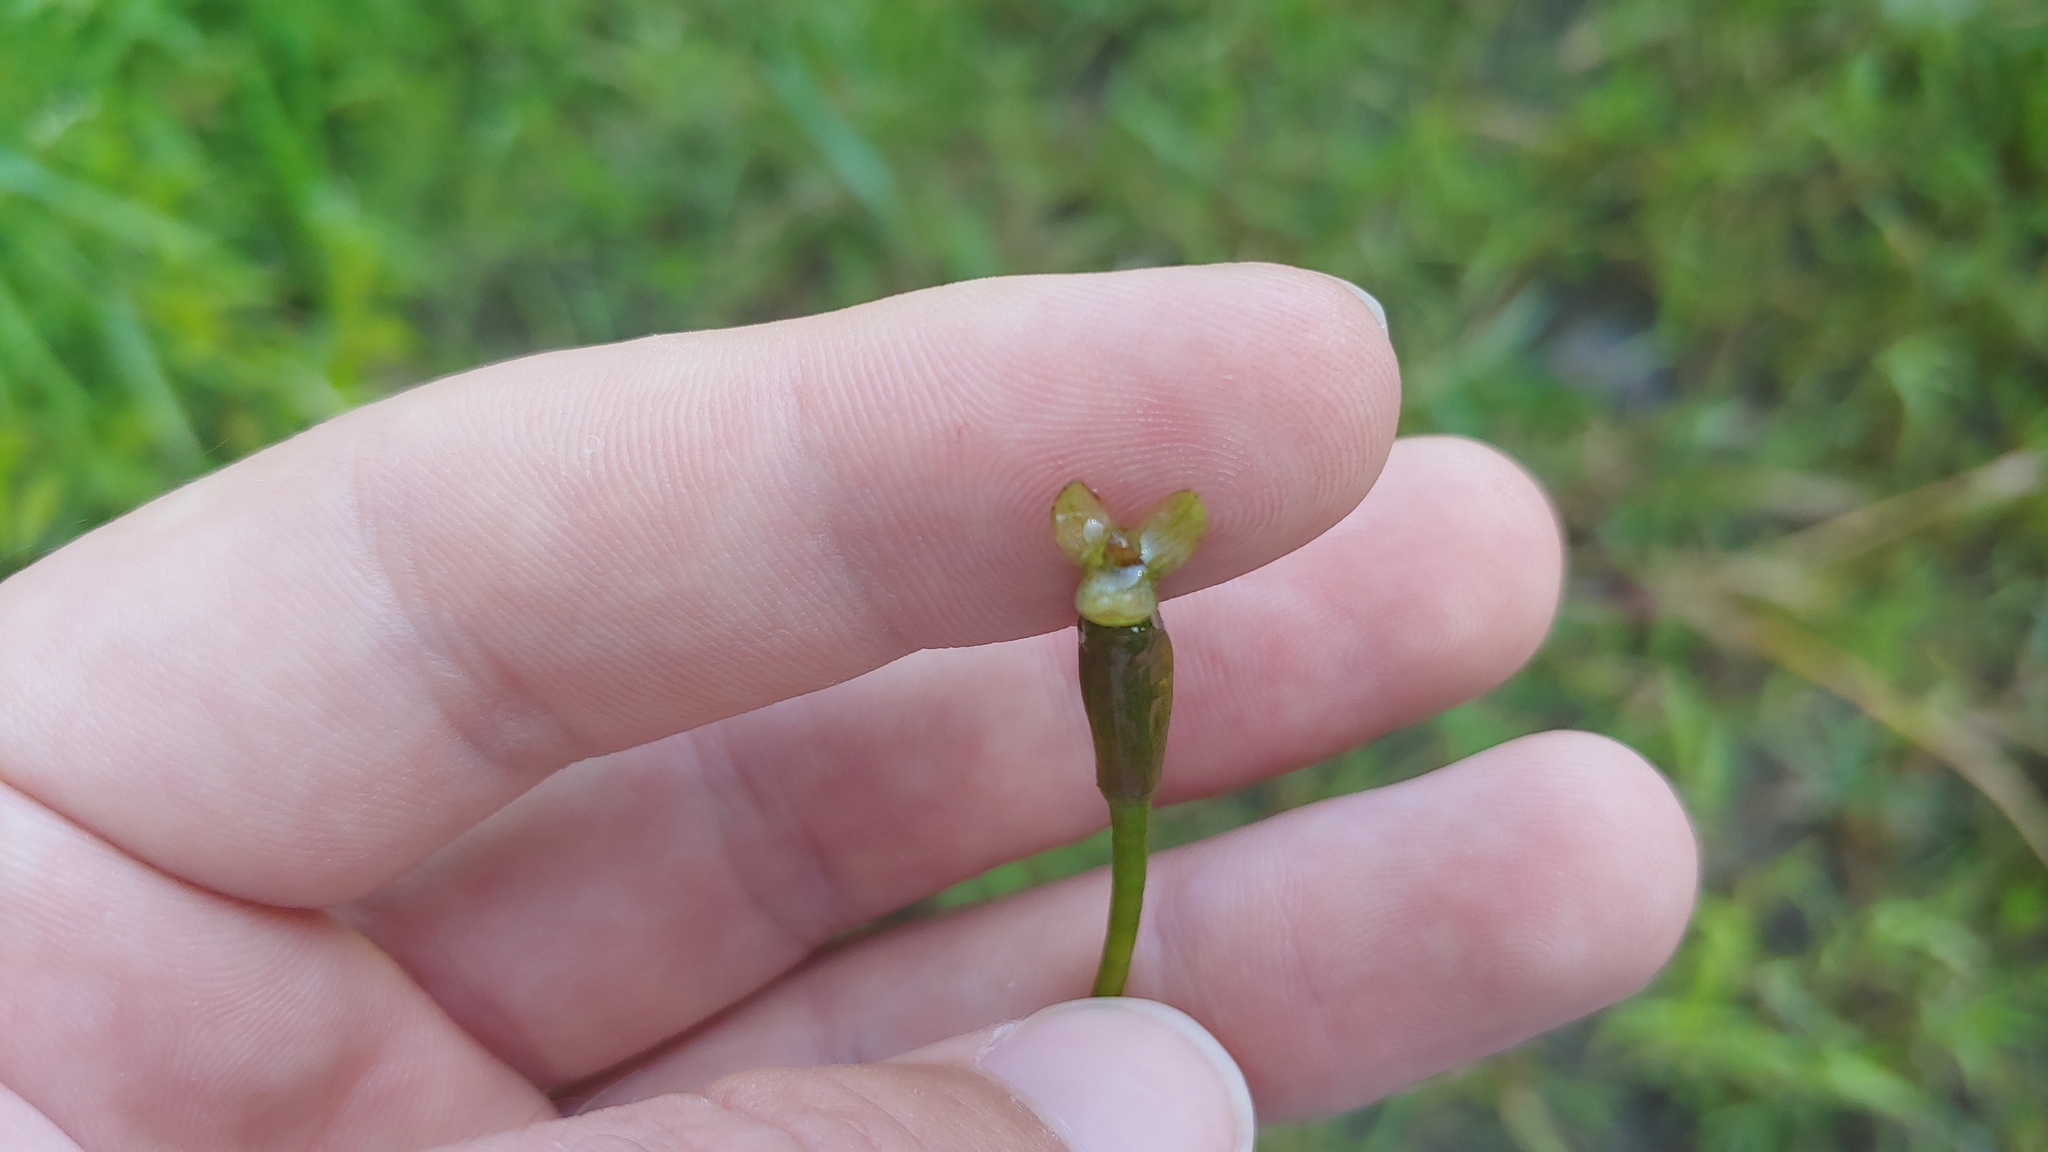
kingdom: Plantae
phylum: Tracheophyta
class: Liliopsida
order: Alismatales
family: Hydrocharitaceae
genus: Vallisneria
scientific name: Vallisneria americana
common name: American eelgrass
